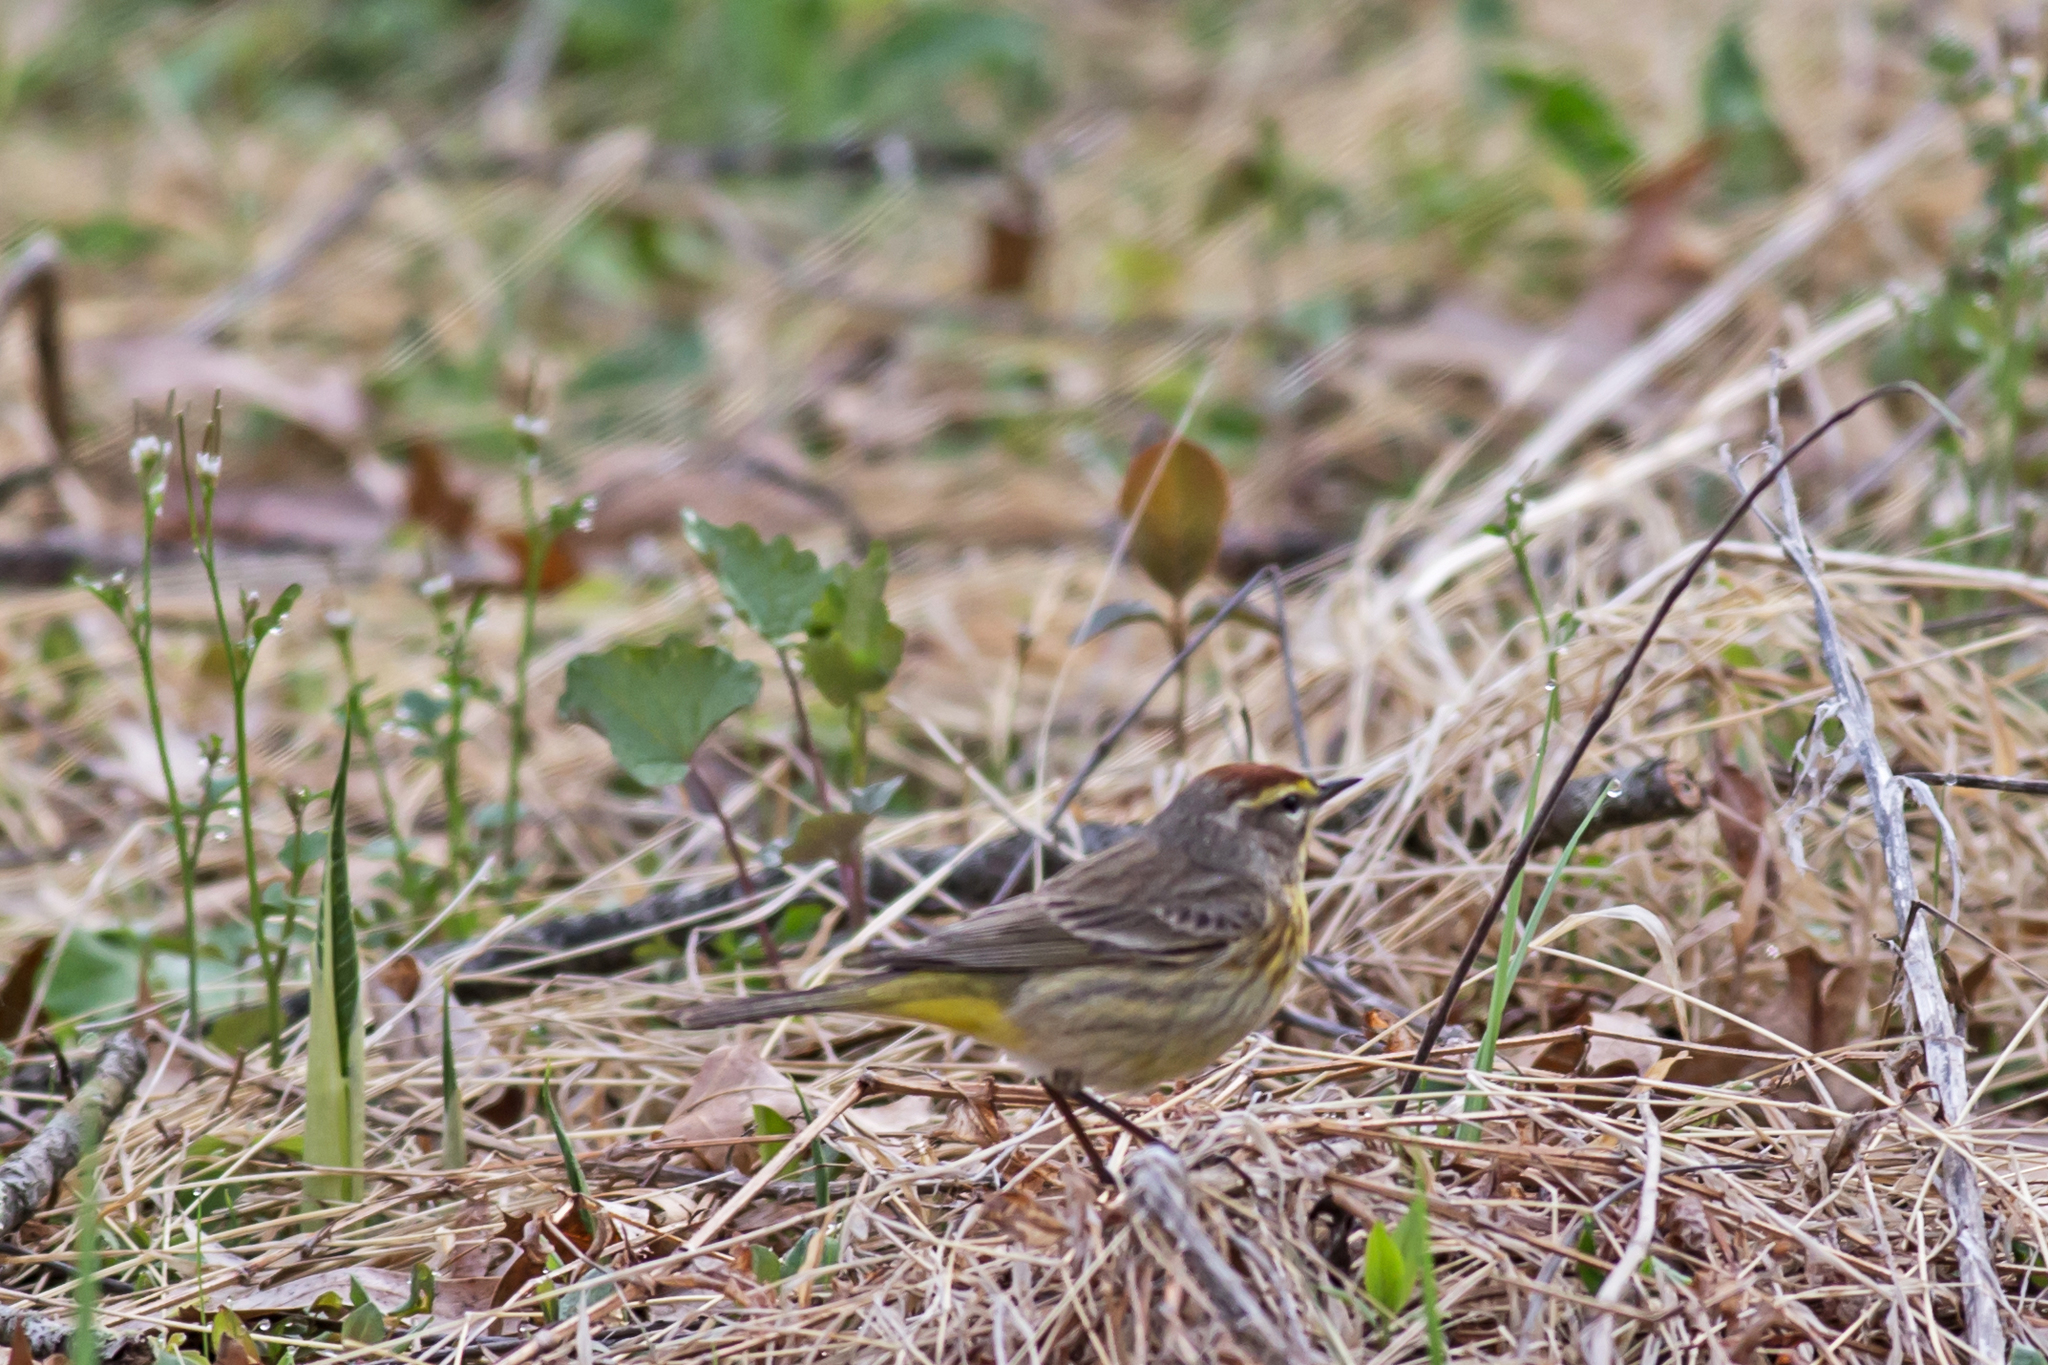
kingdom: Animalia
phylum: Chordata
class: Aves
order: Passeriformes
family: Parulidae
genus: Setophaga
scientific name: Setophaga palmarum
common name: Palm warbler
